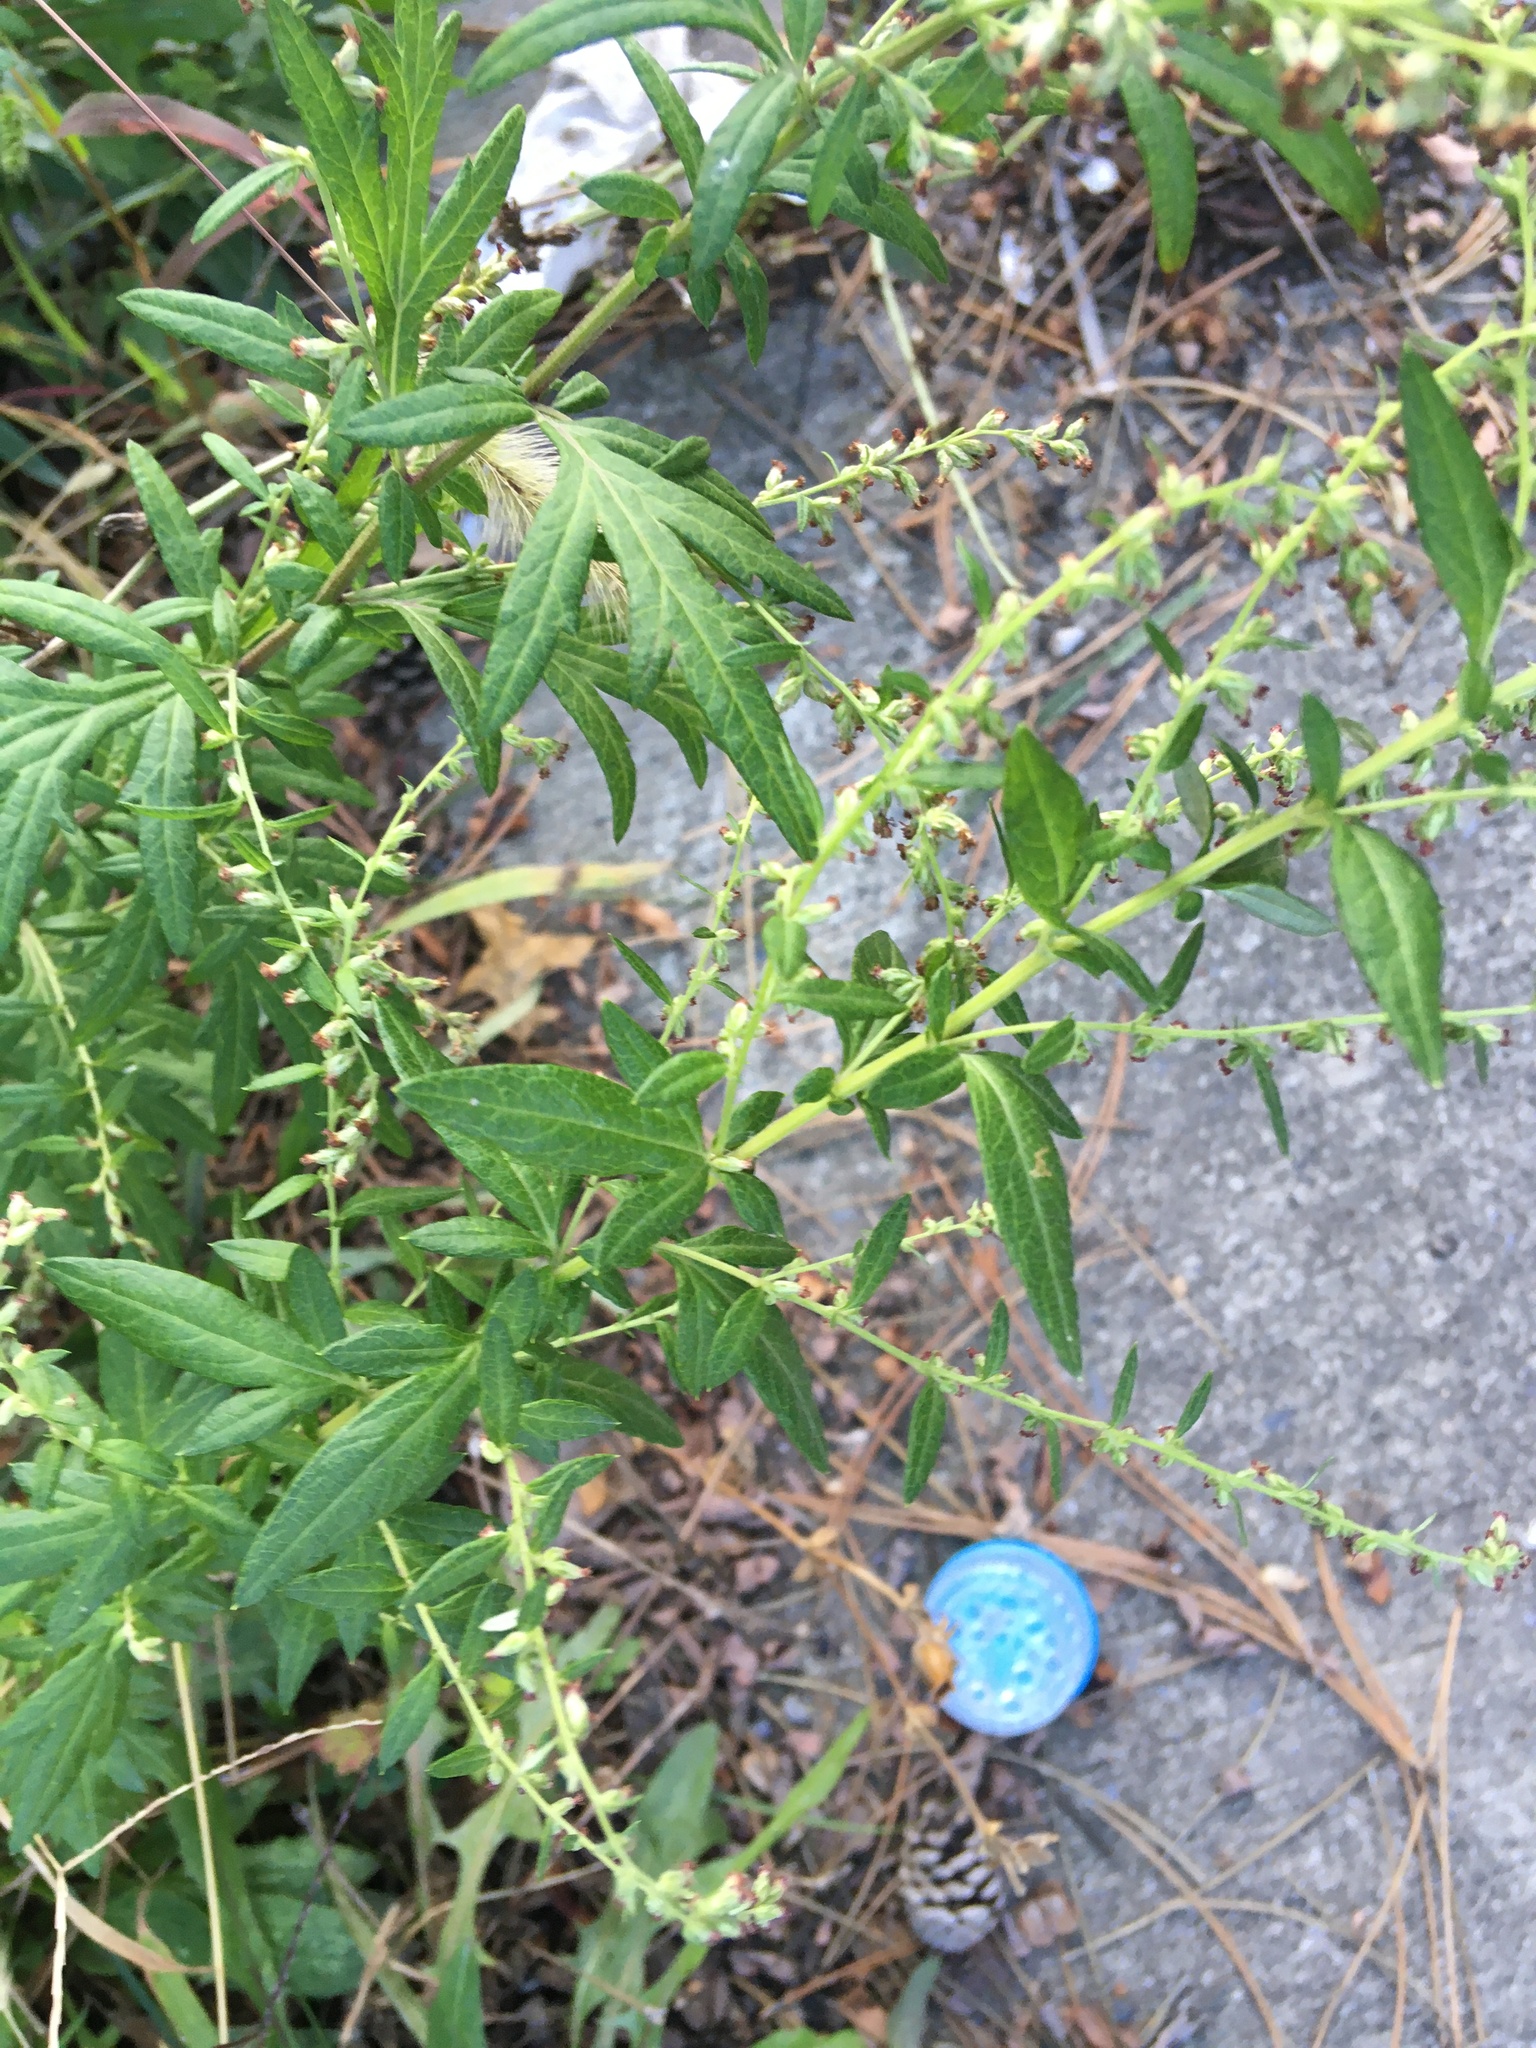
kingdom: Plantae
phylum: Tracheophyta
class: Magnoliopsida
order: Asterales
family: Asteraceae
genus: Artemisia
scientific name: Artemisia vulgaris
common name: Mugwort
